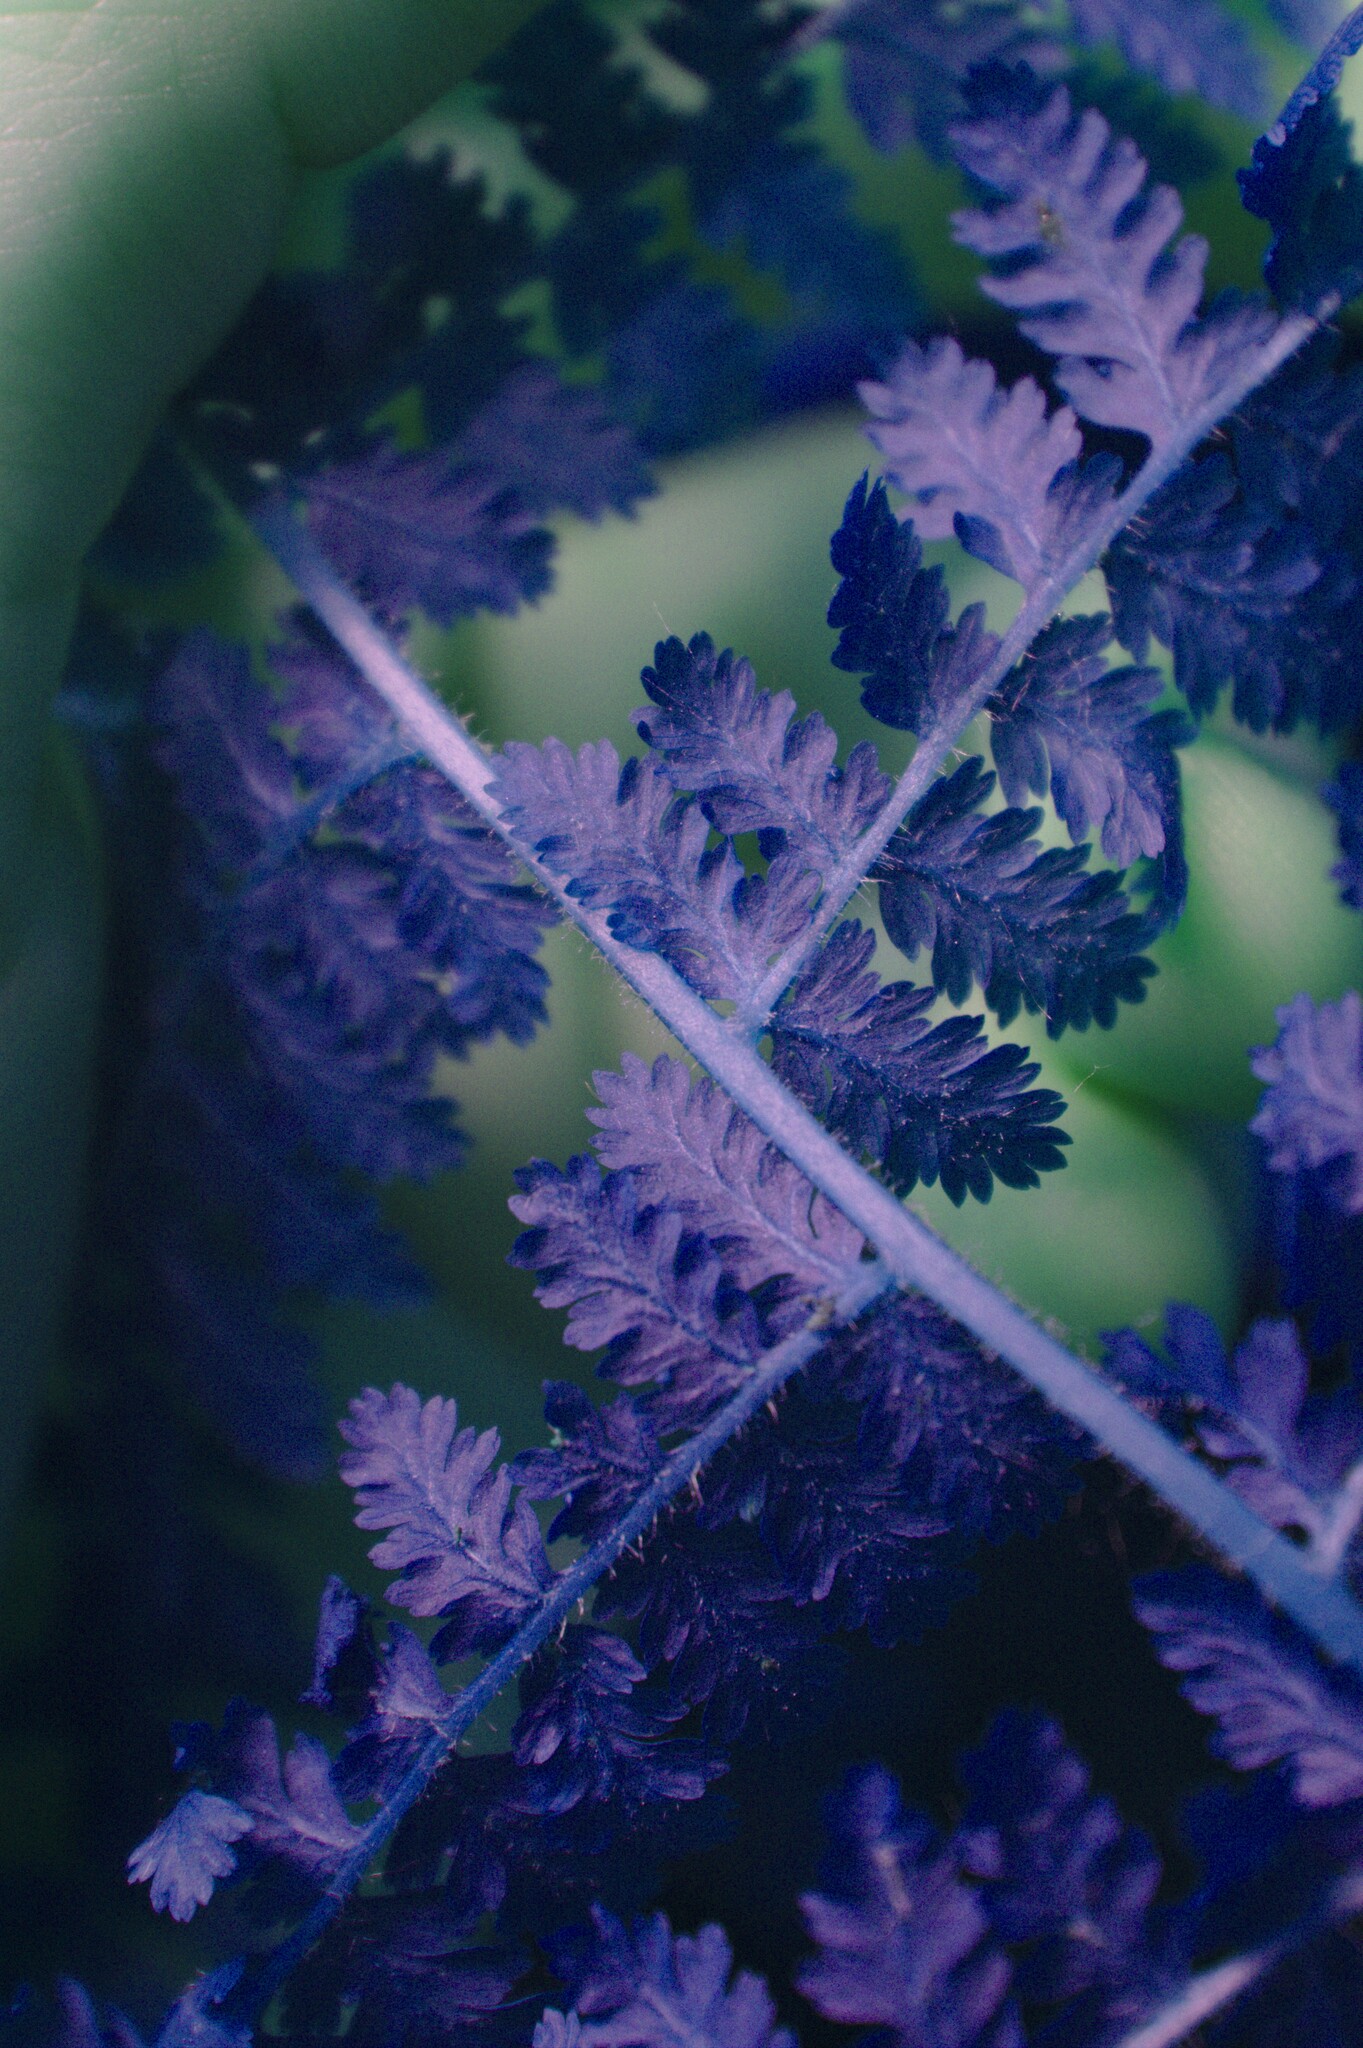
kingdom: Plantae
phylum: Tracheophyta
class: Polypodiopsida
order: Polypodiales
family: Dennstaedtiaceae
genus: Sitobolium
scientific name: Sitobolium punctilobum
